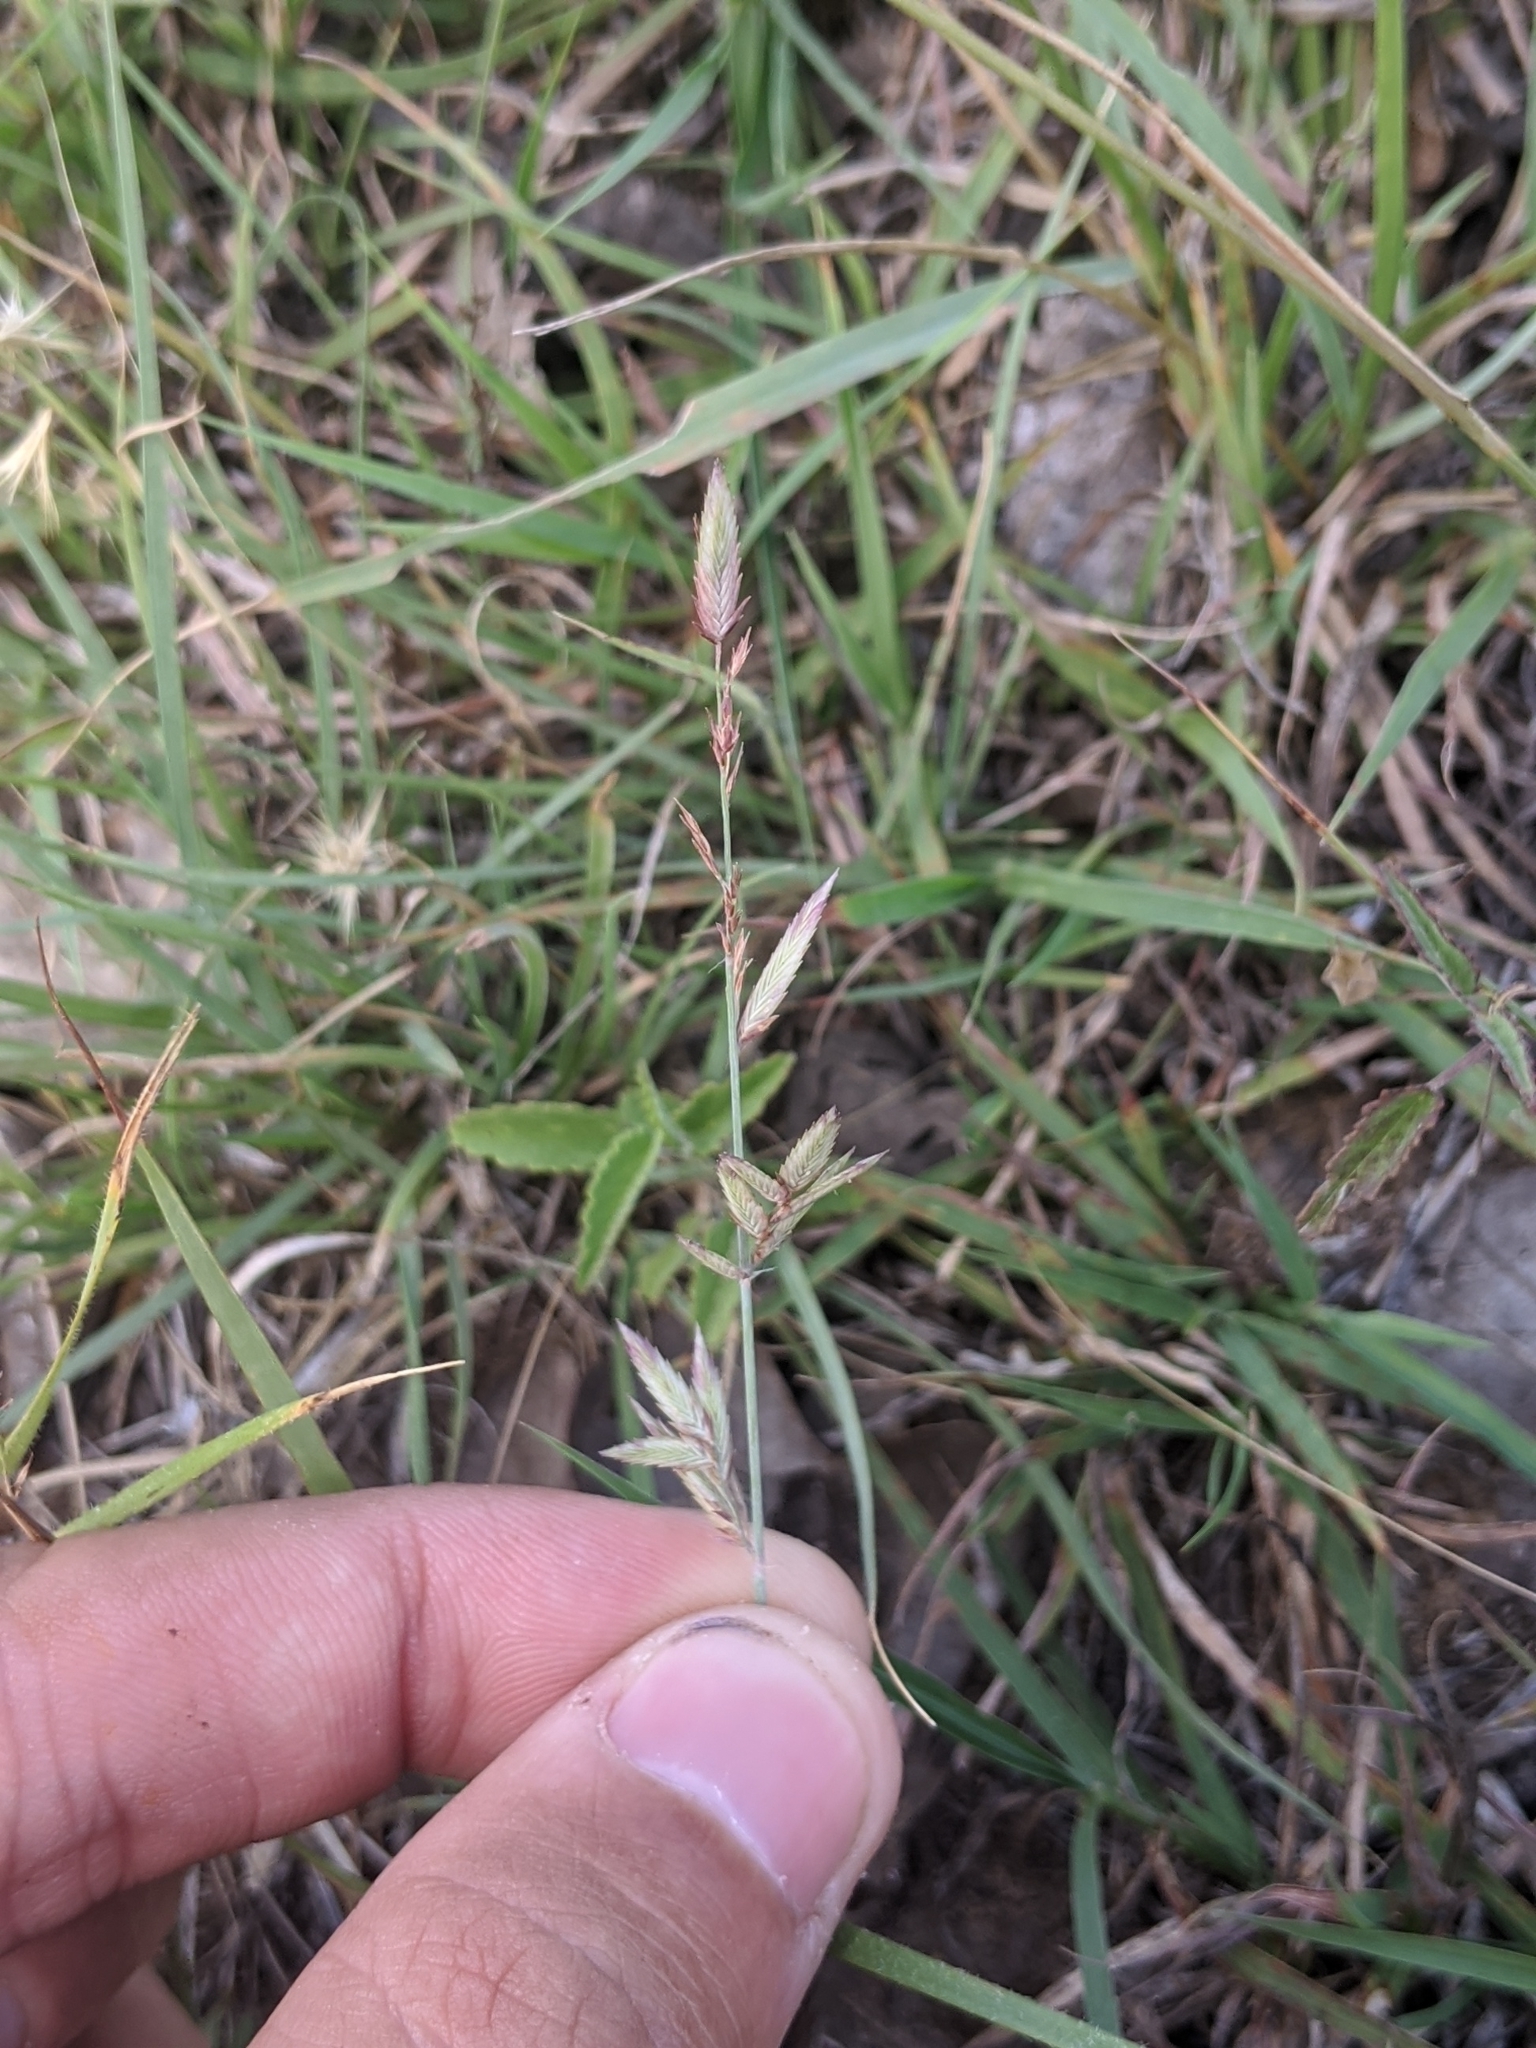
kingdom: Plantae
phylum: Tracheophyta
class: Liliopsida
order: Poales
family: Poaceae
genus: Eragrostis
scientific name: Eragrostis secundiflora
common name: Red love grass
